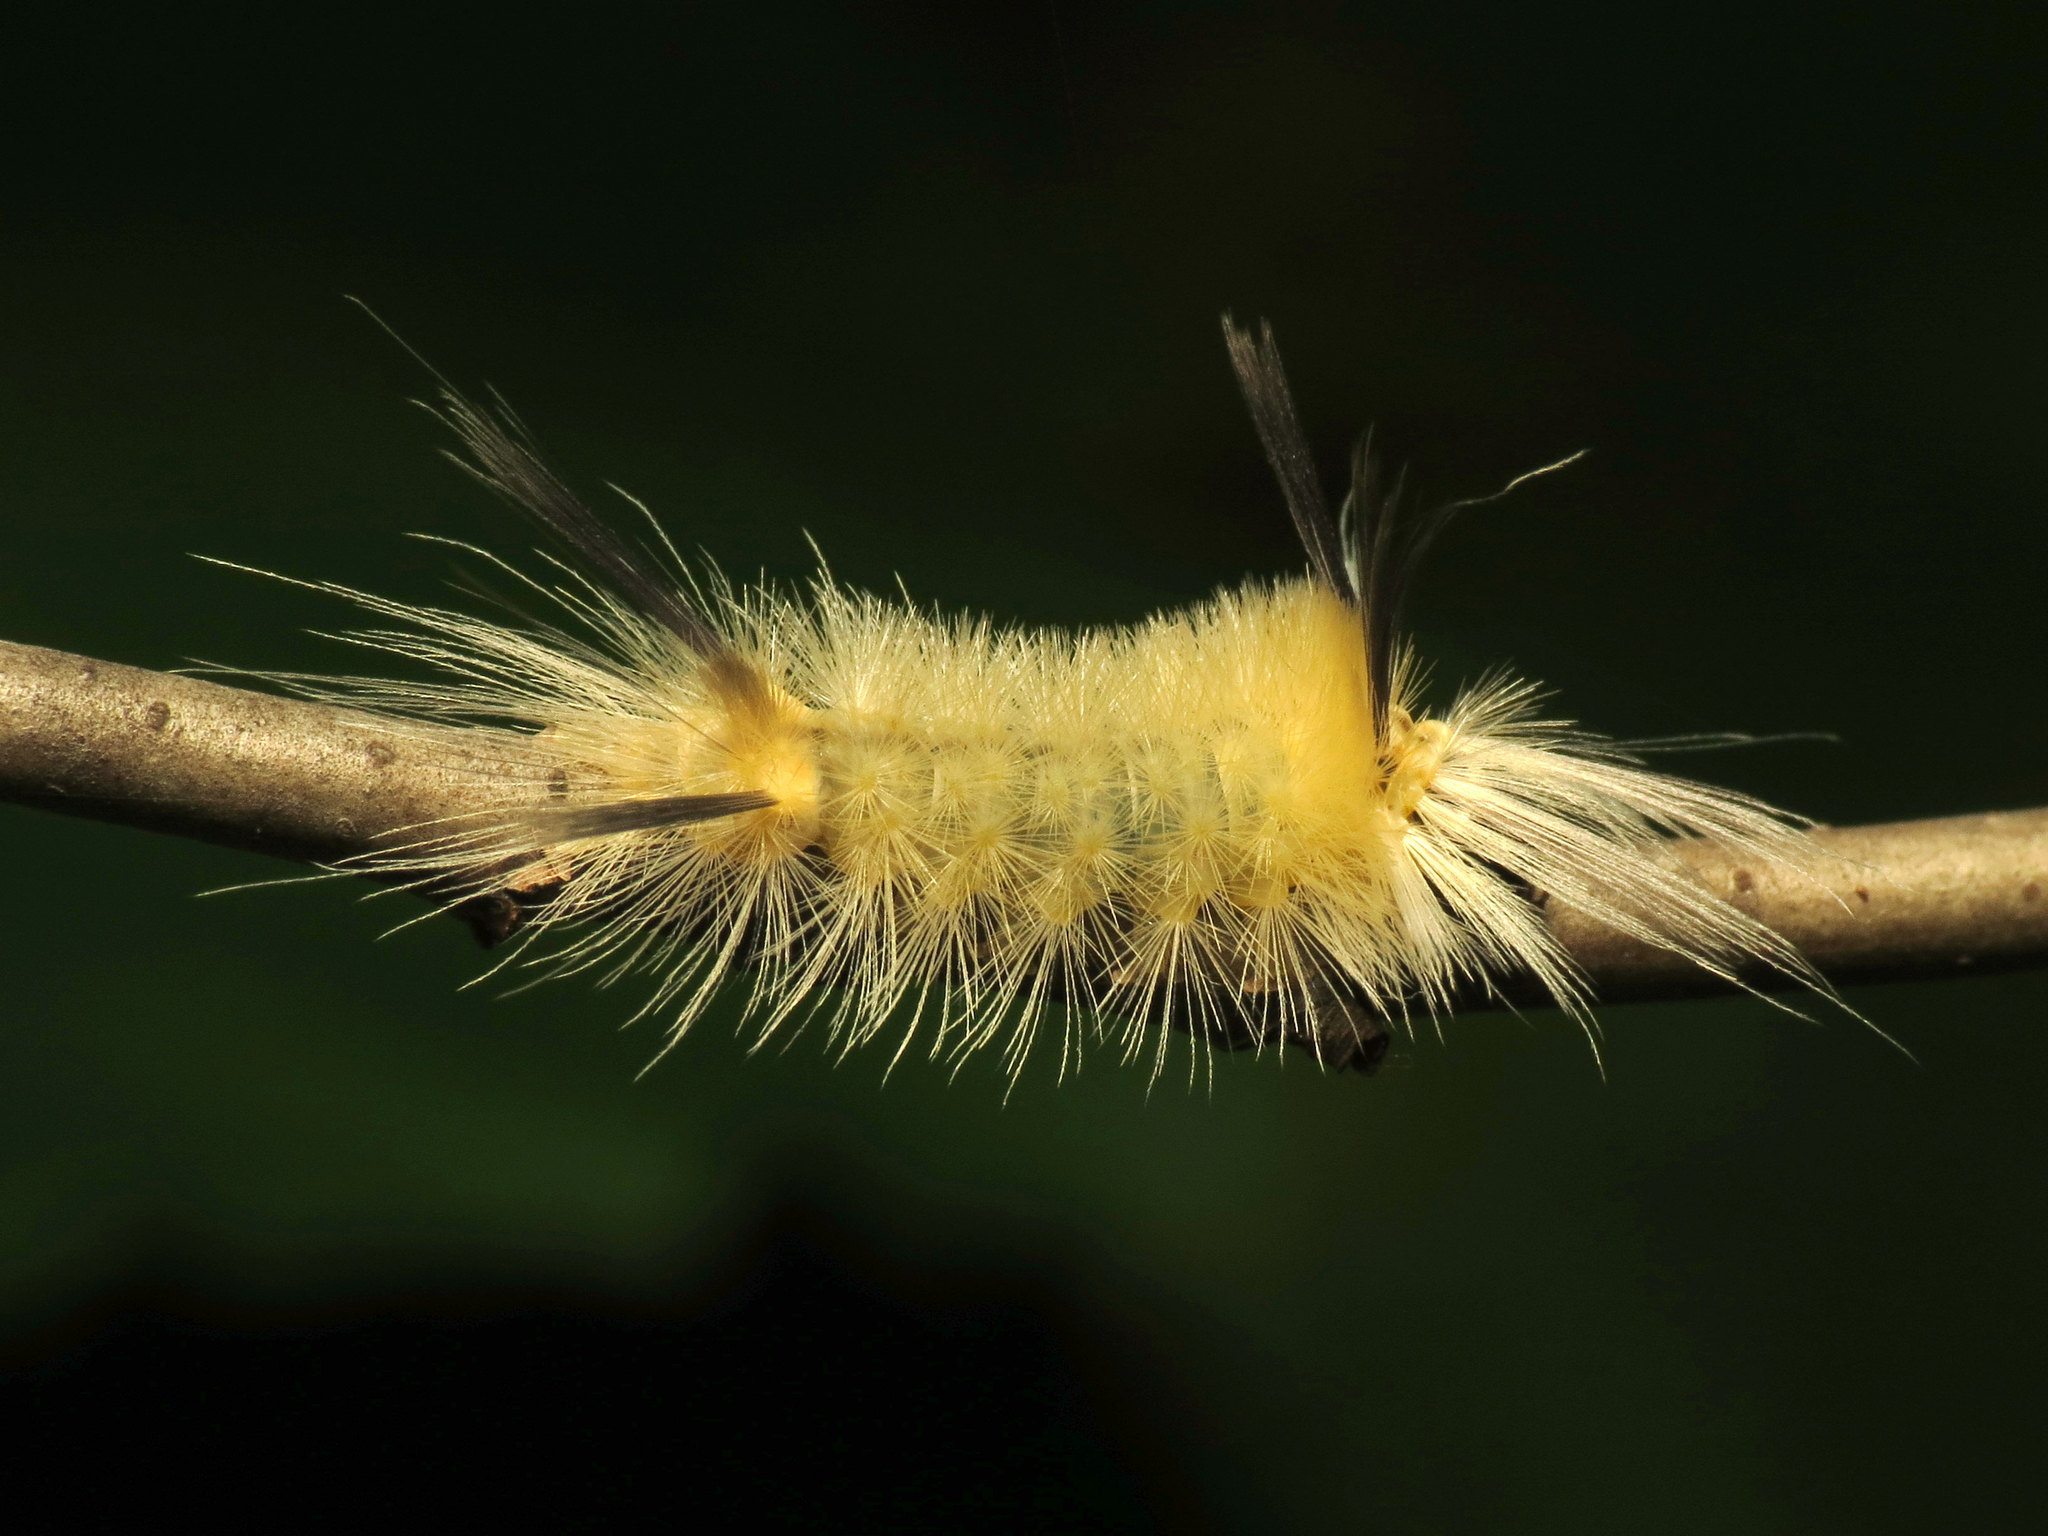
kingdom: Animalia
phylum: Arthropoda
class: Insecta
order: Lepidoptera
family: Erebidae
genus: Halysidota
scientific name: Halysidota tessellaris
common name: Banded tussock moth
